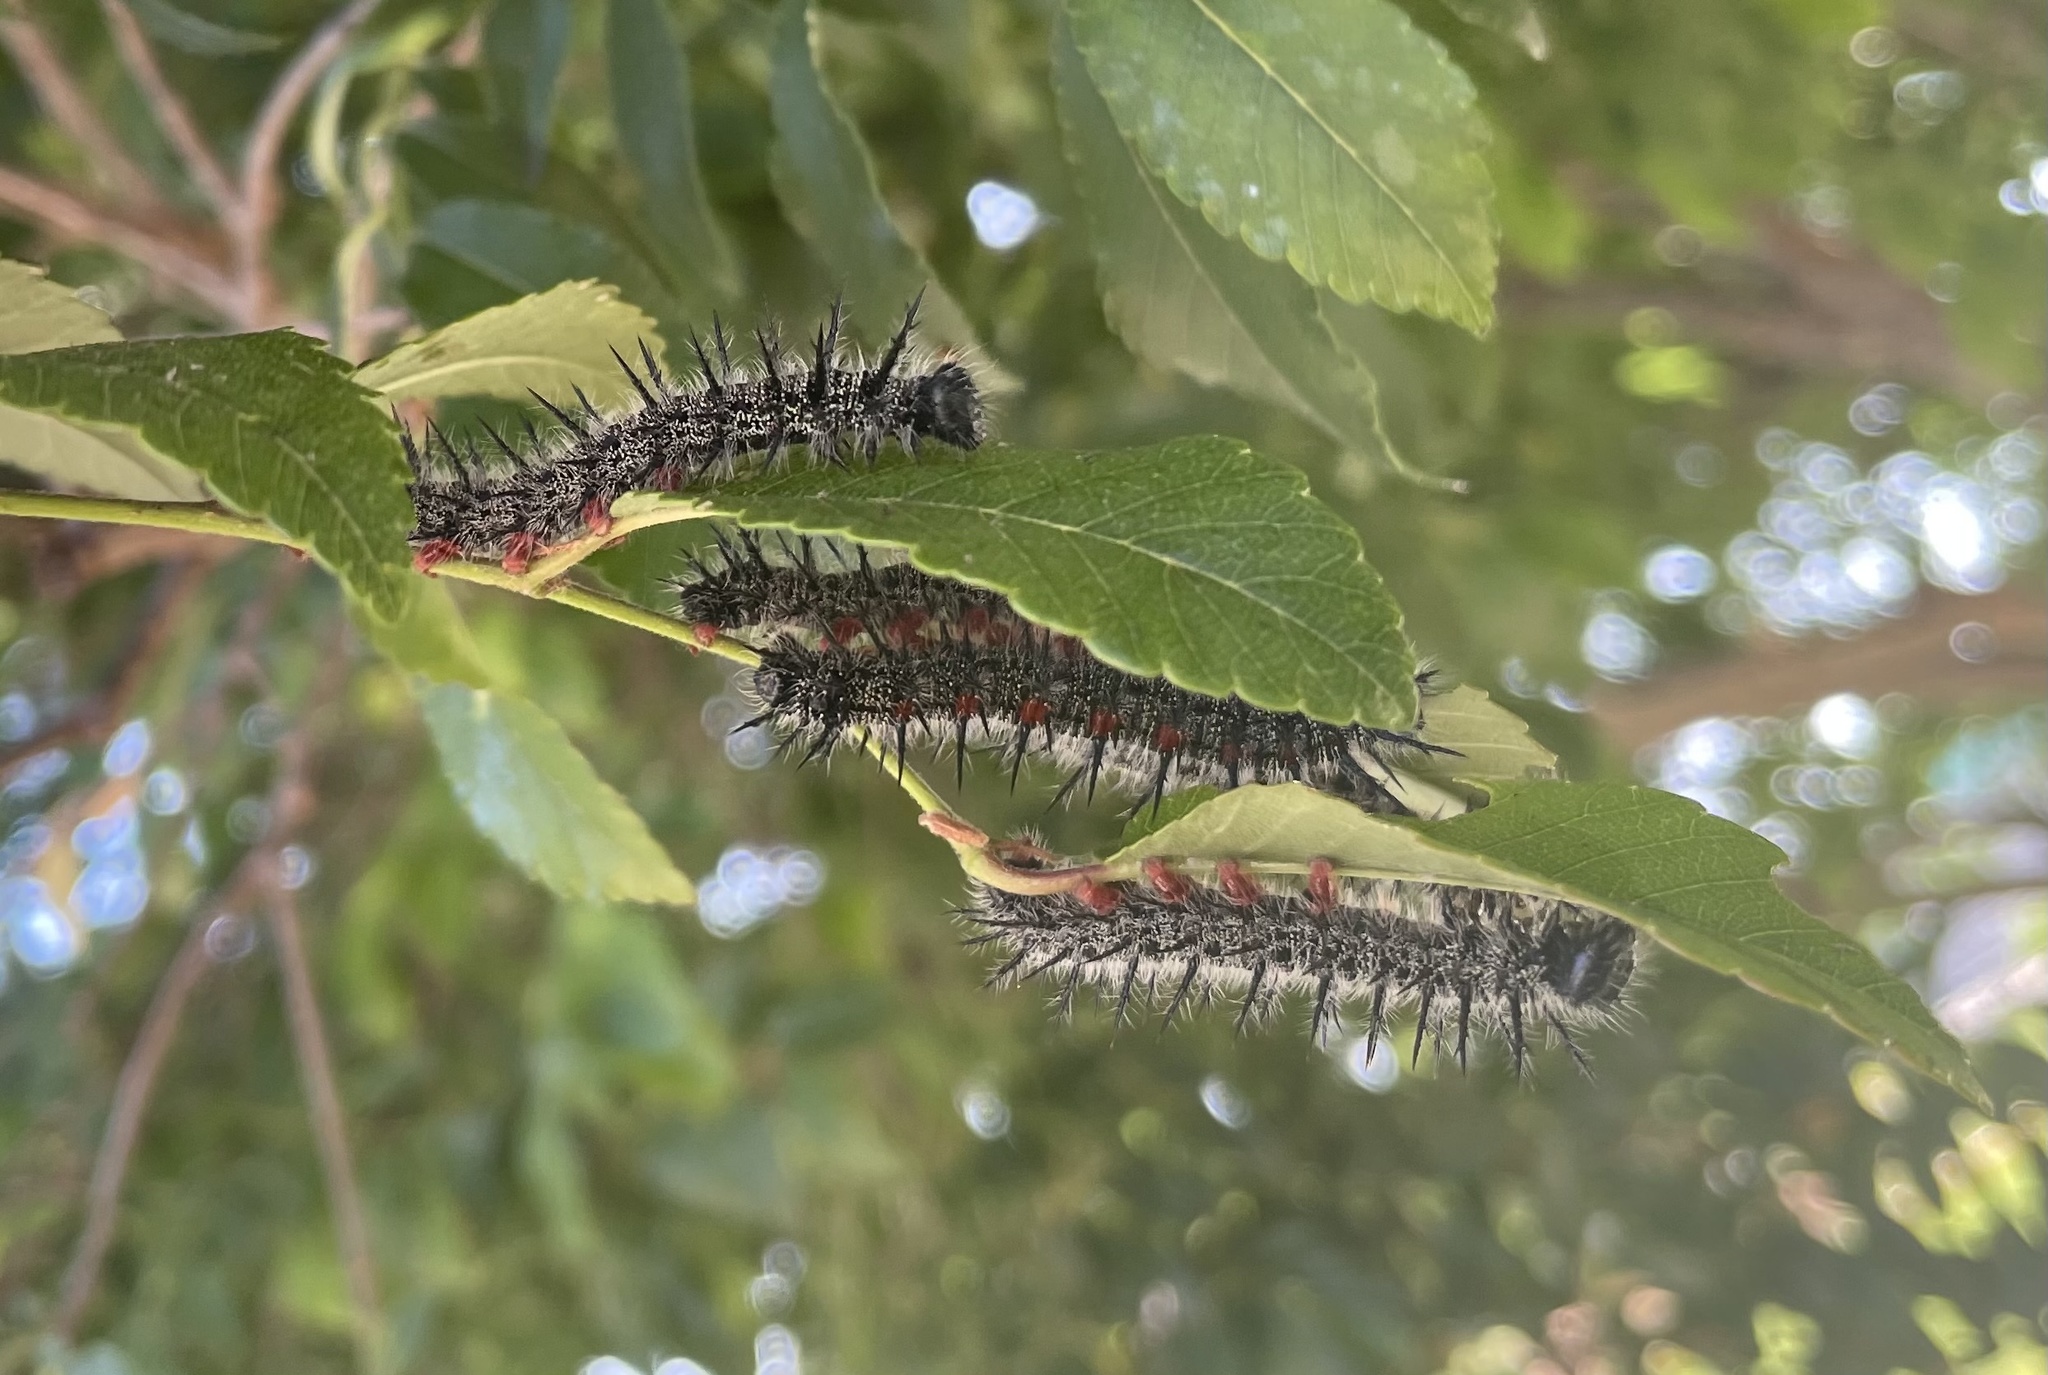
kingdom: Animalia
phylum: Arthropoda
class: Insecta
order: Lepidoptera
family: Nymphalidae
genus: Nymphalis
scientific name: Nymphalis antiopa
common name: Camberwell beauty
